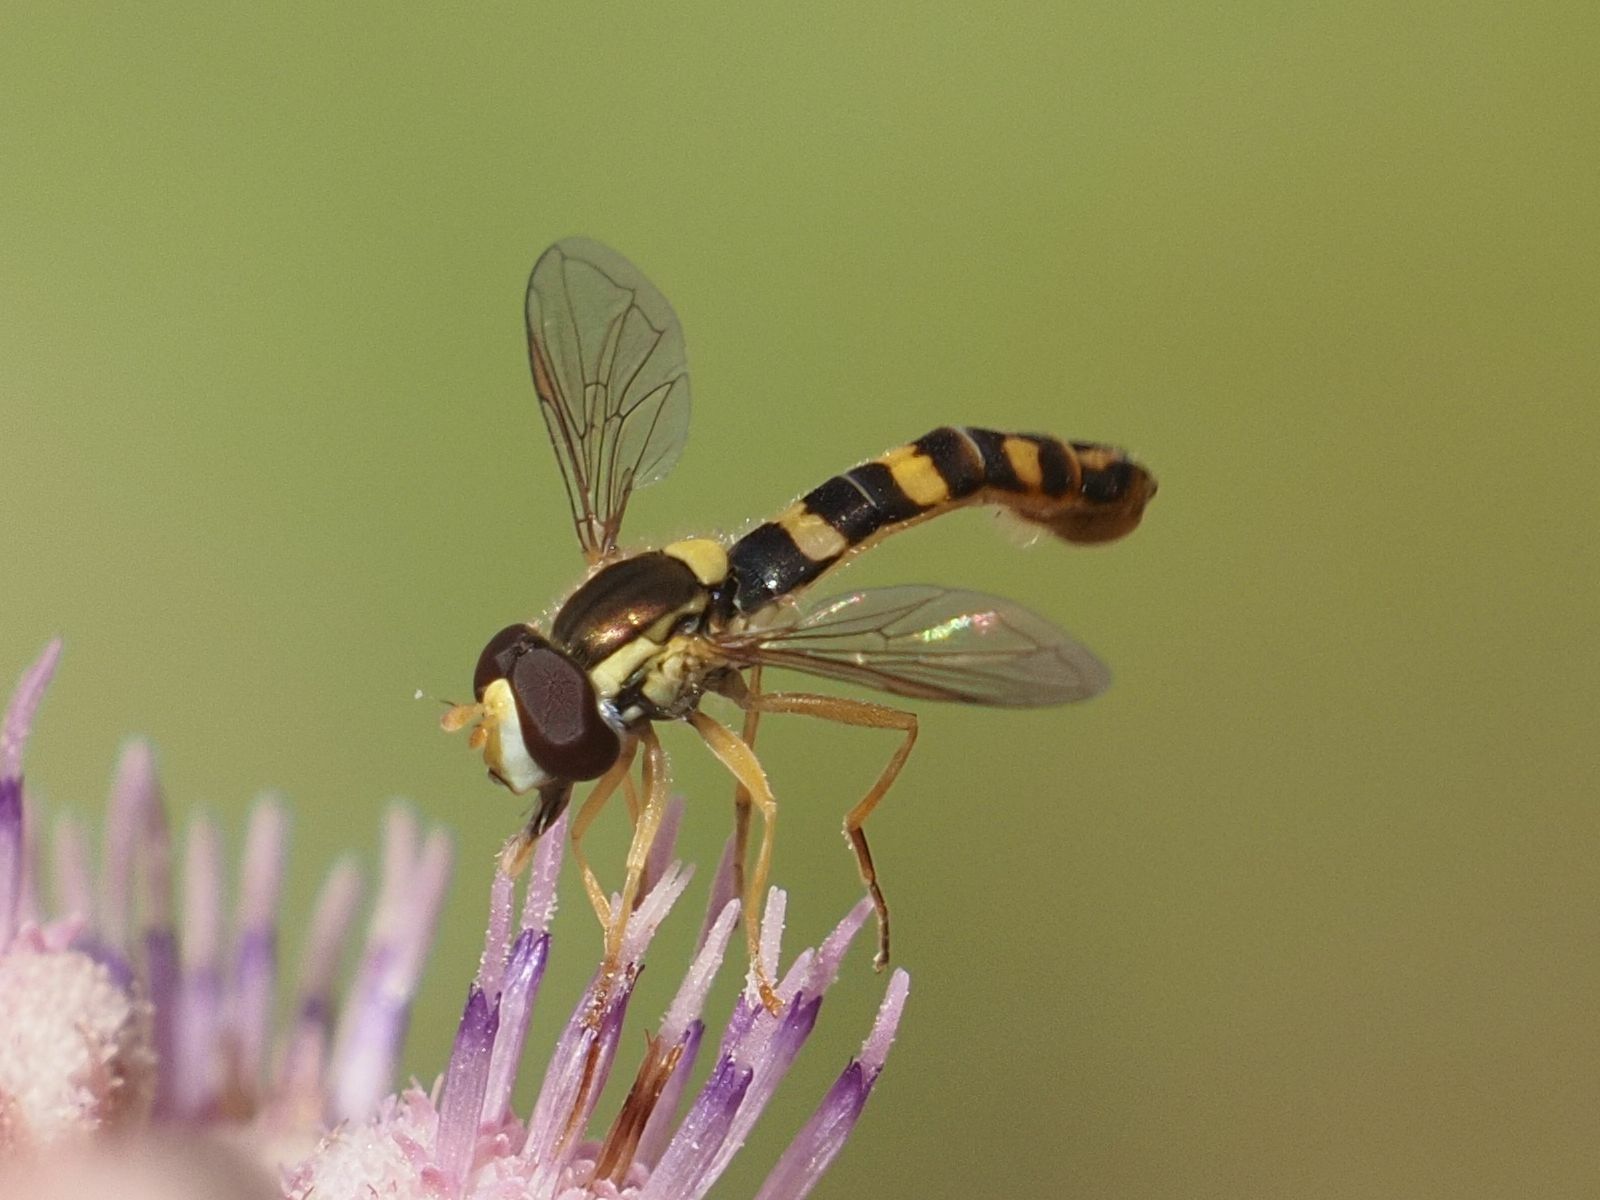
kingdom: Animalia
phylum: Arthropoda
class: Insecta
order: Diptera
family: Syrphidae
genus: Sphaerophoria
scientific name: Sphaerophoria scripta
